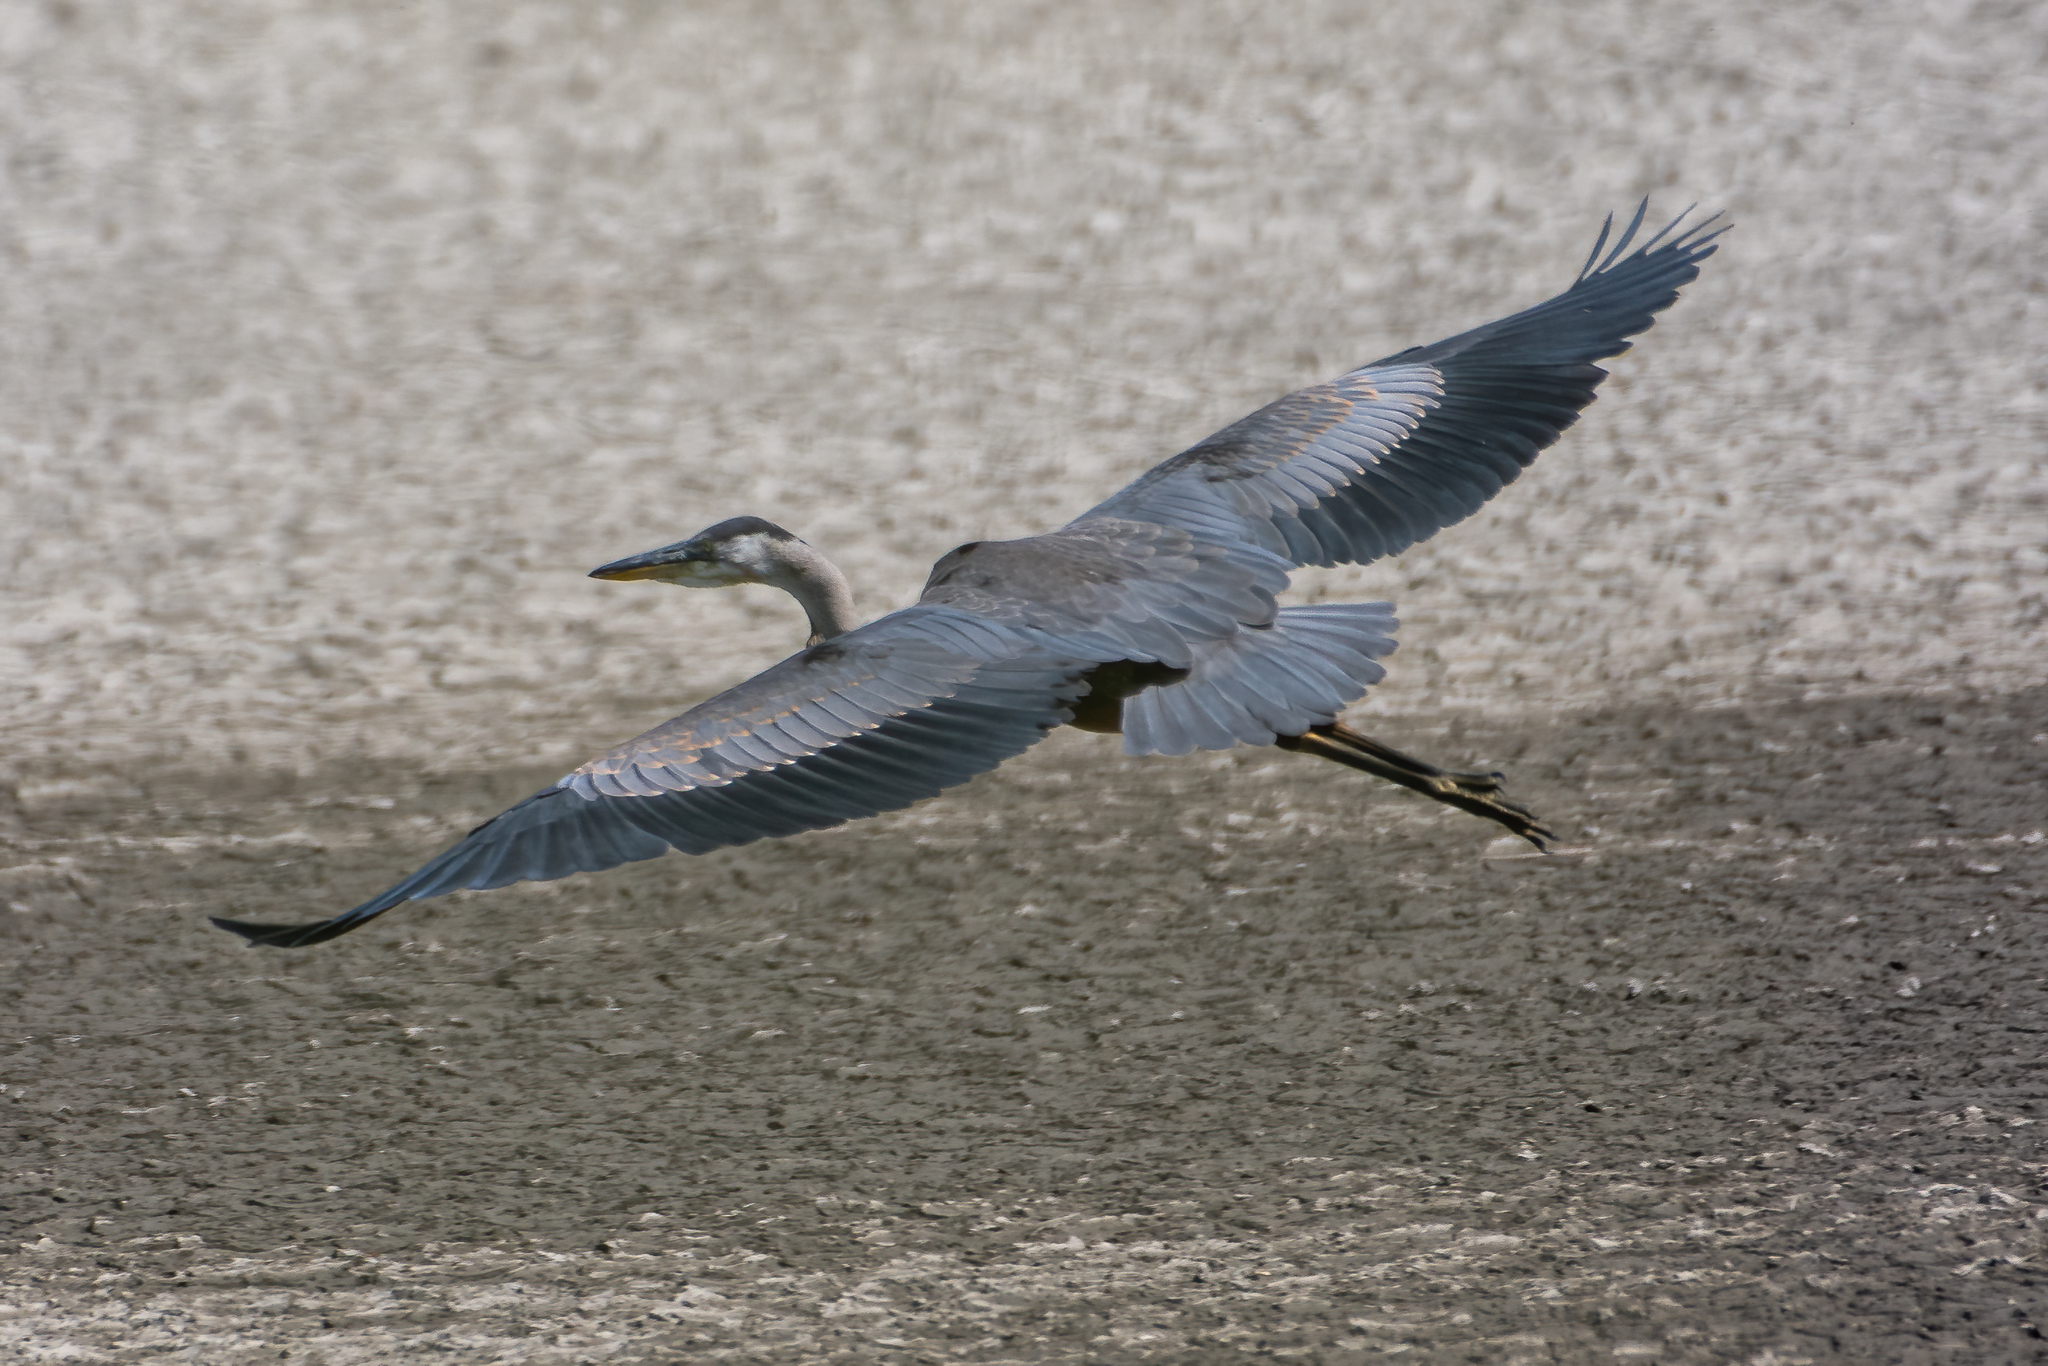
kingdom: Animalia
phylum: Chordata
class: Aves
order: Pelecaniformes
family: Ardeidae
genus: Ardea
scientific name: Ardea herodias
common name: Great blue heron
